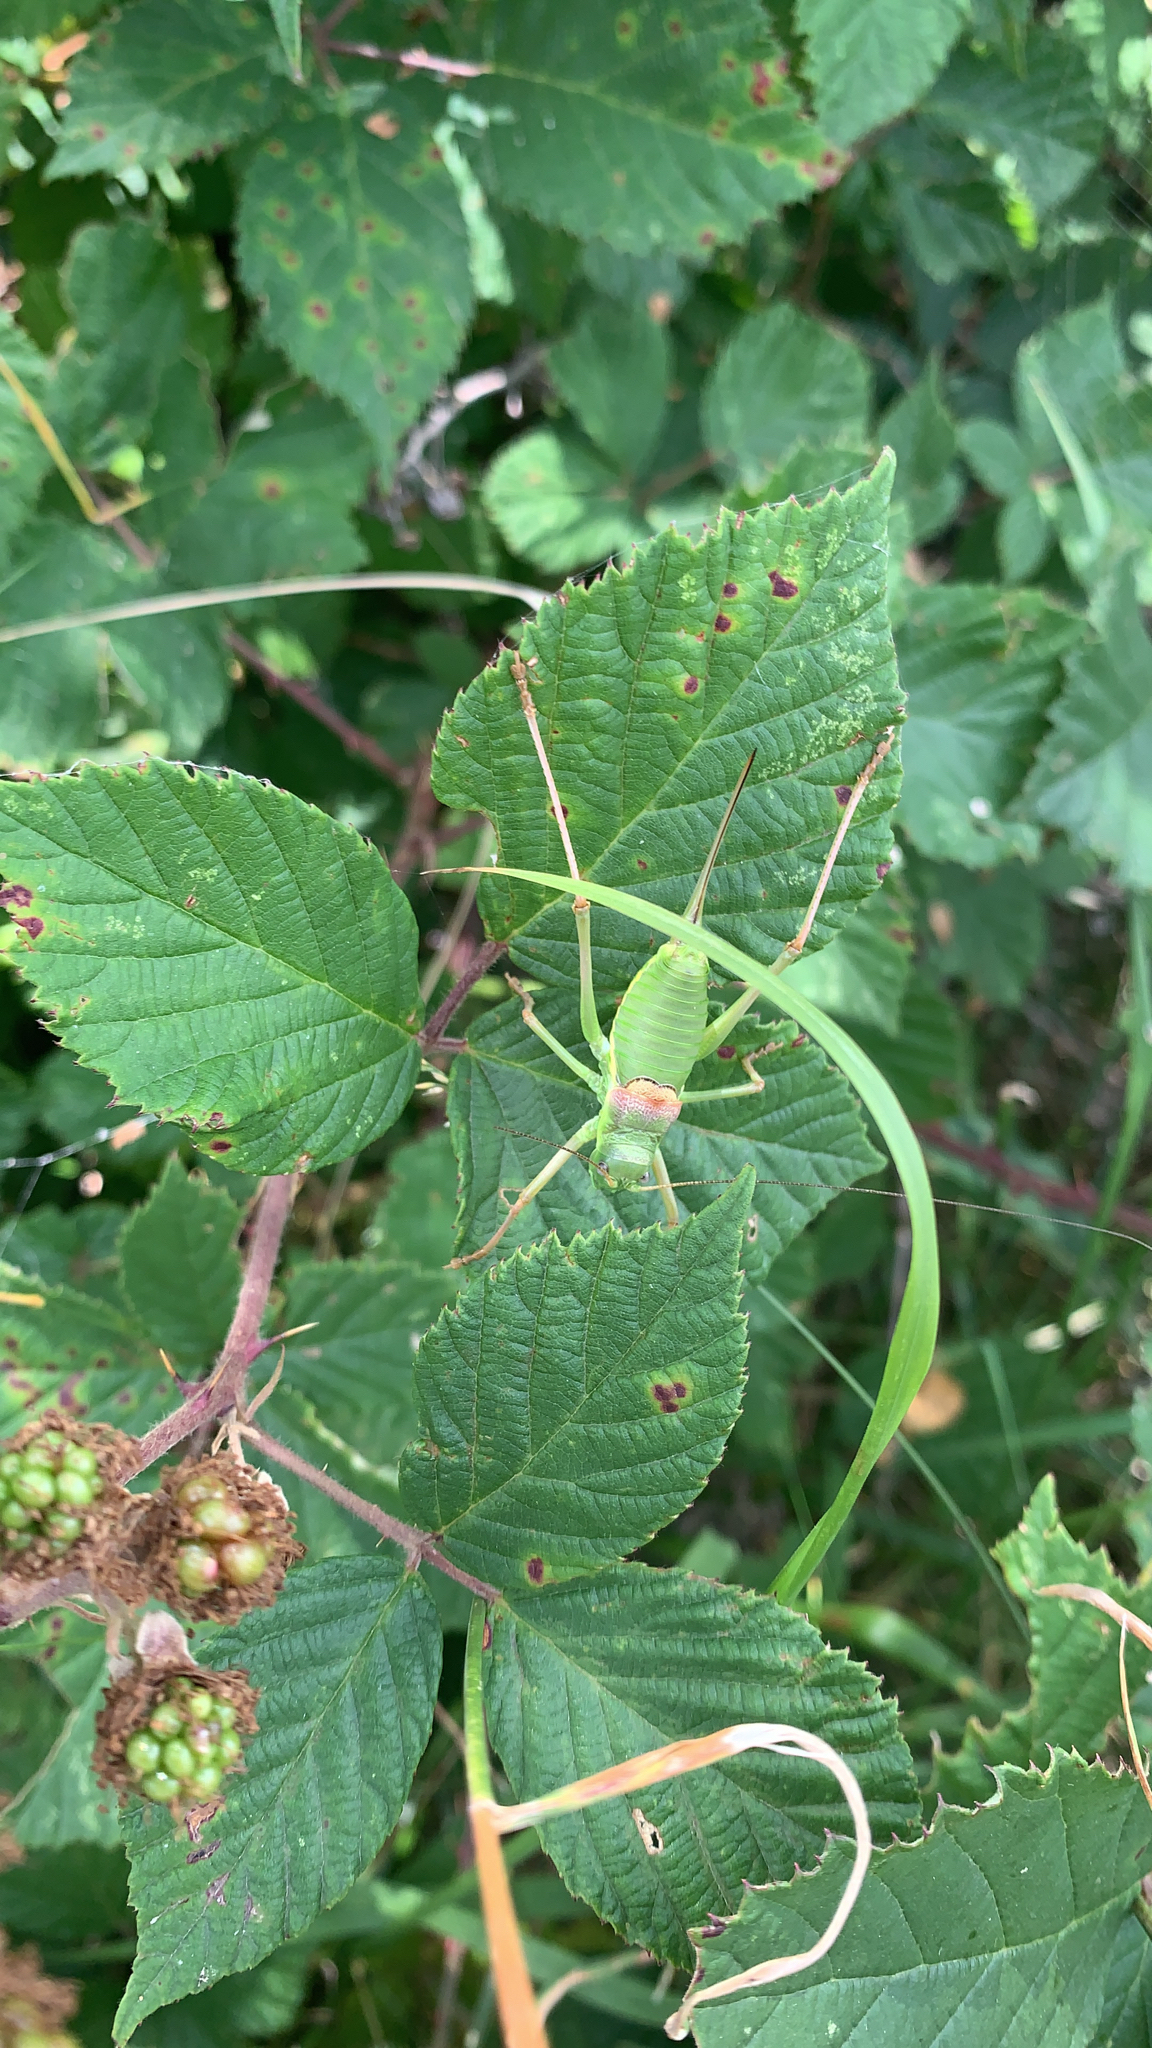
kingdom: Animalia
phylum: Arthropoda
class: Insecta
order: Orthoptera
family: Tettigoniidae
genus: Ephippiger
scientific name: Ephippiger diurnus
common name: Western saddle bush-cricket
